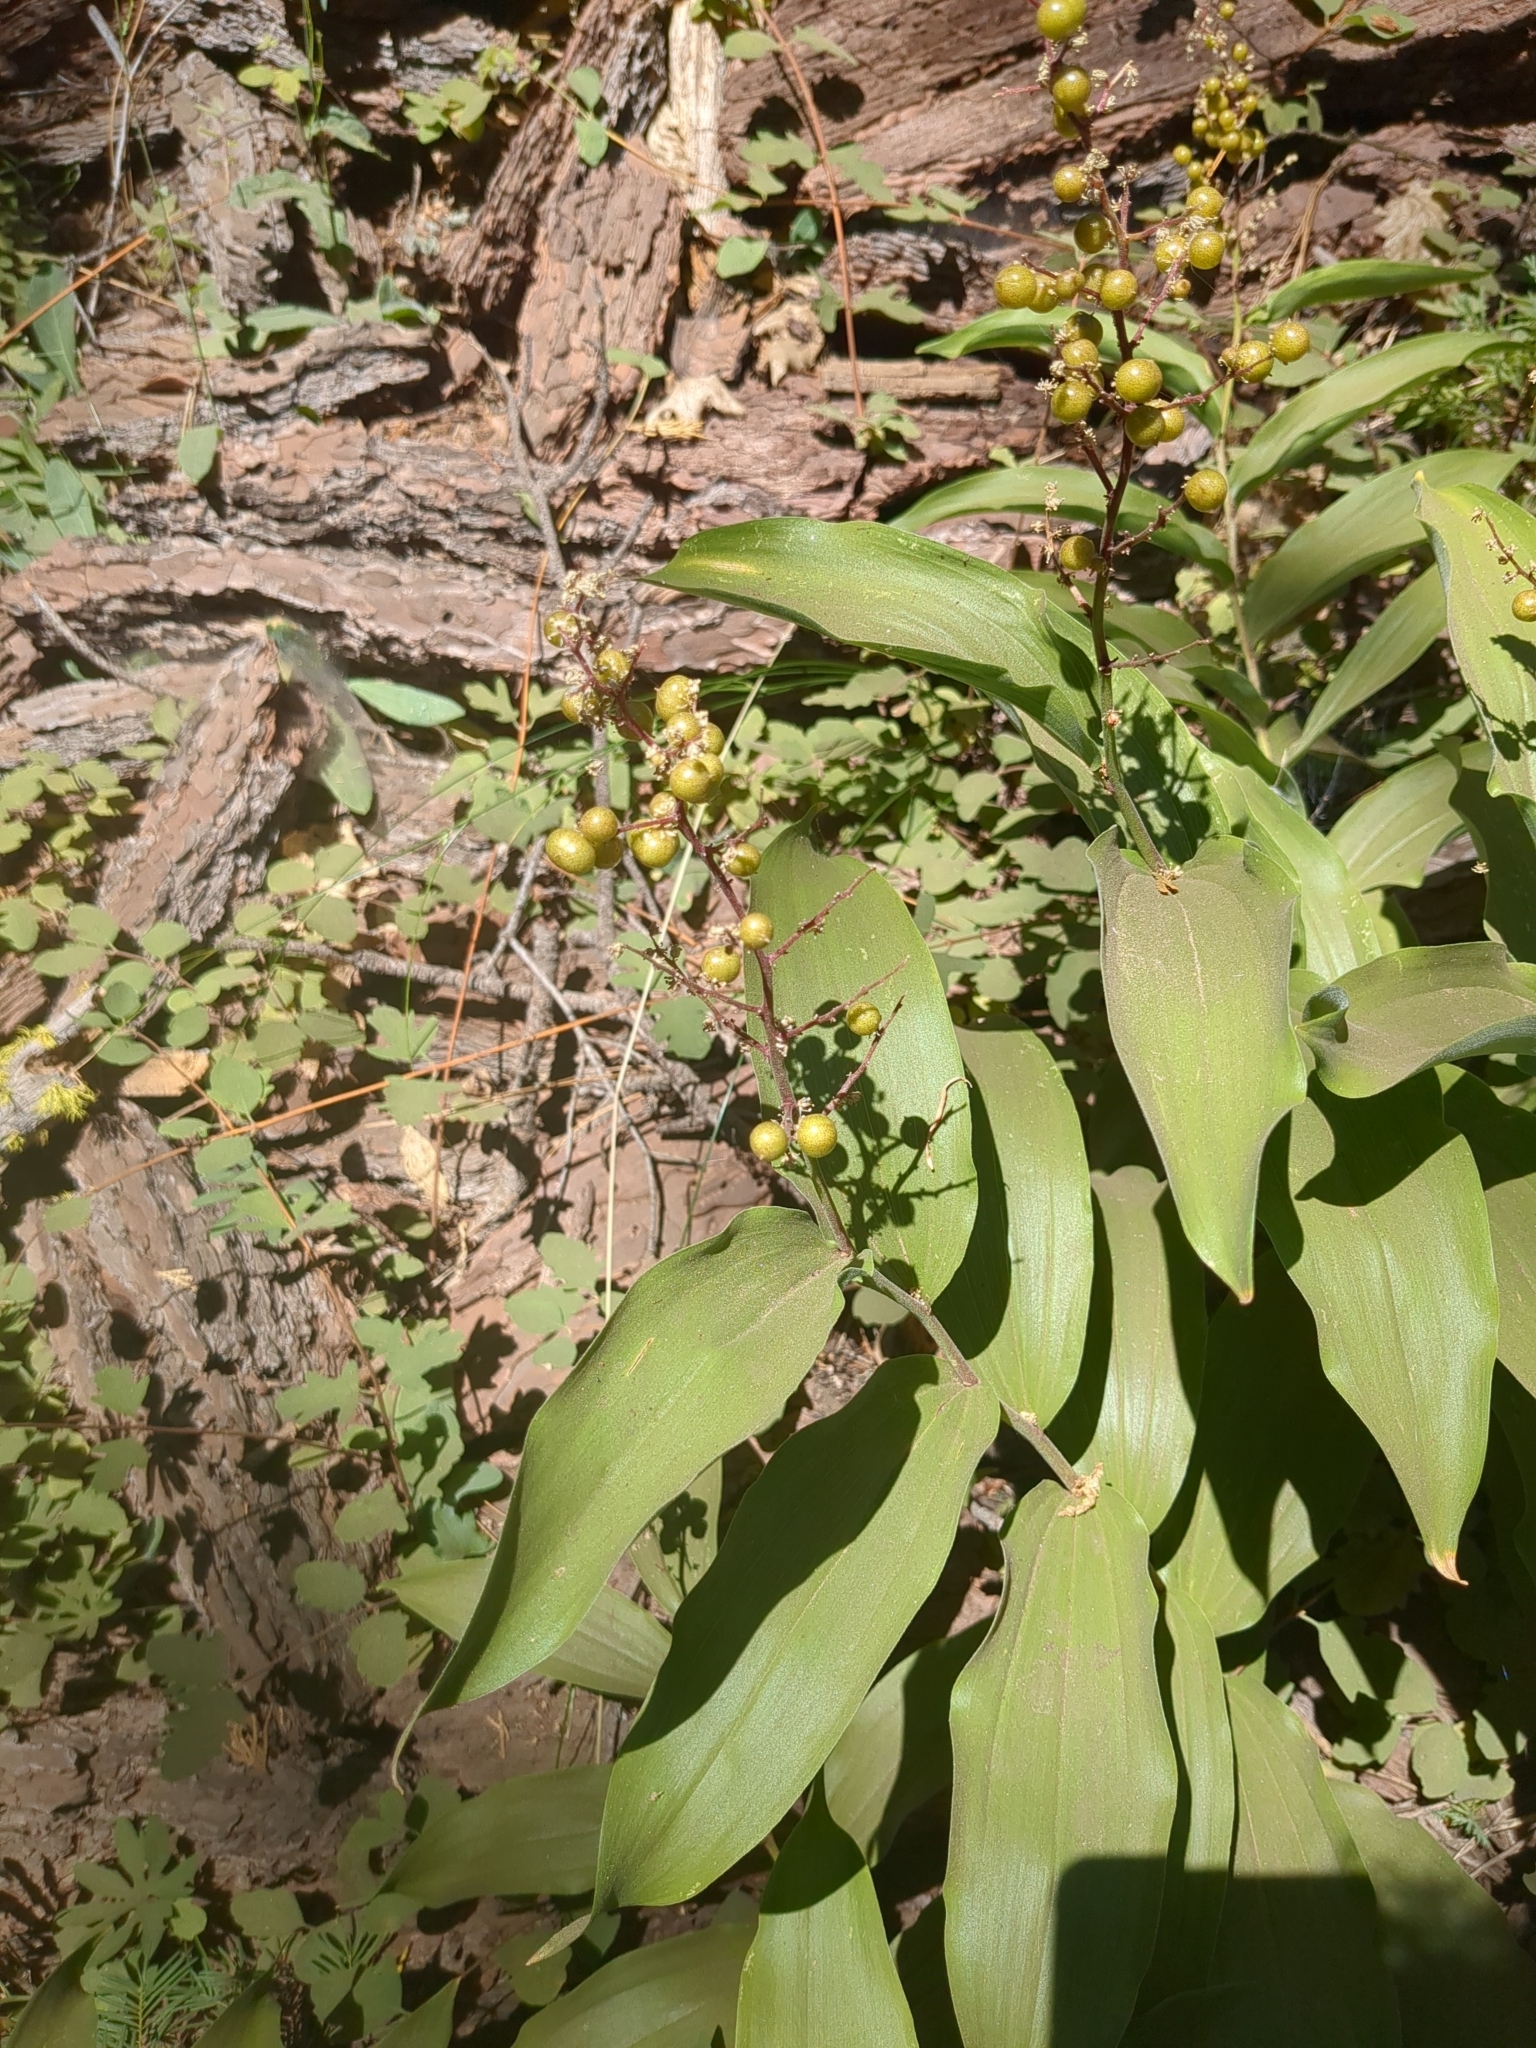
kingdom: Plantae
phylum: Tracheophyta
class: Liliopsida
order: Asparagales
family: Asparagaceae
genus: Maianthemum
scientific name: Maianthemum racemosum
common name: False spikenard
